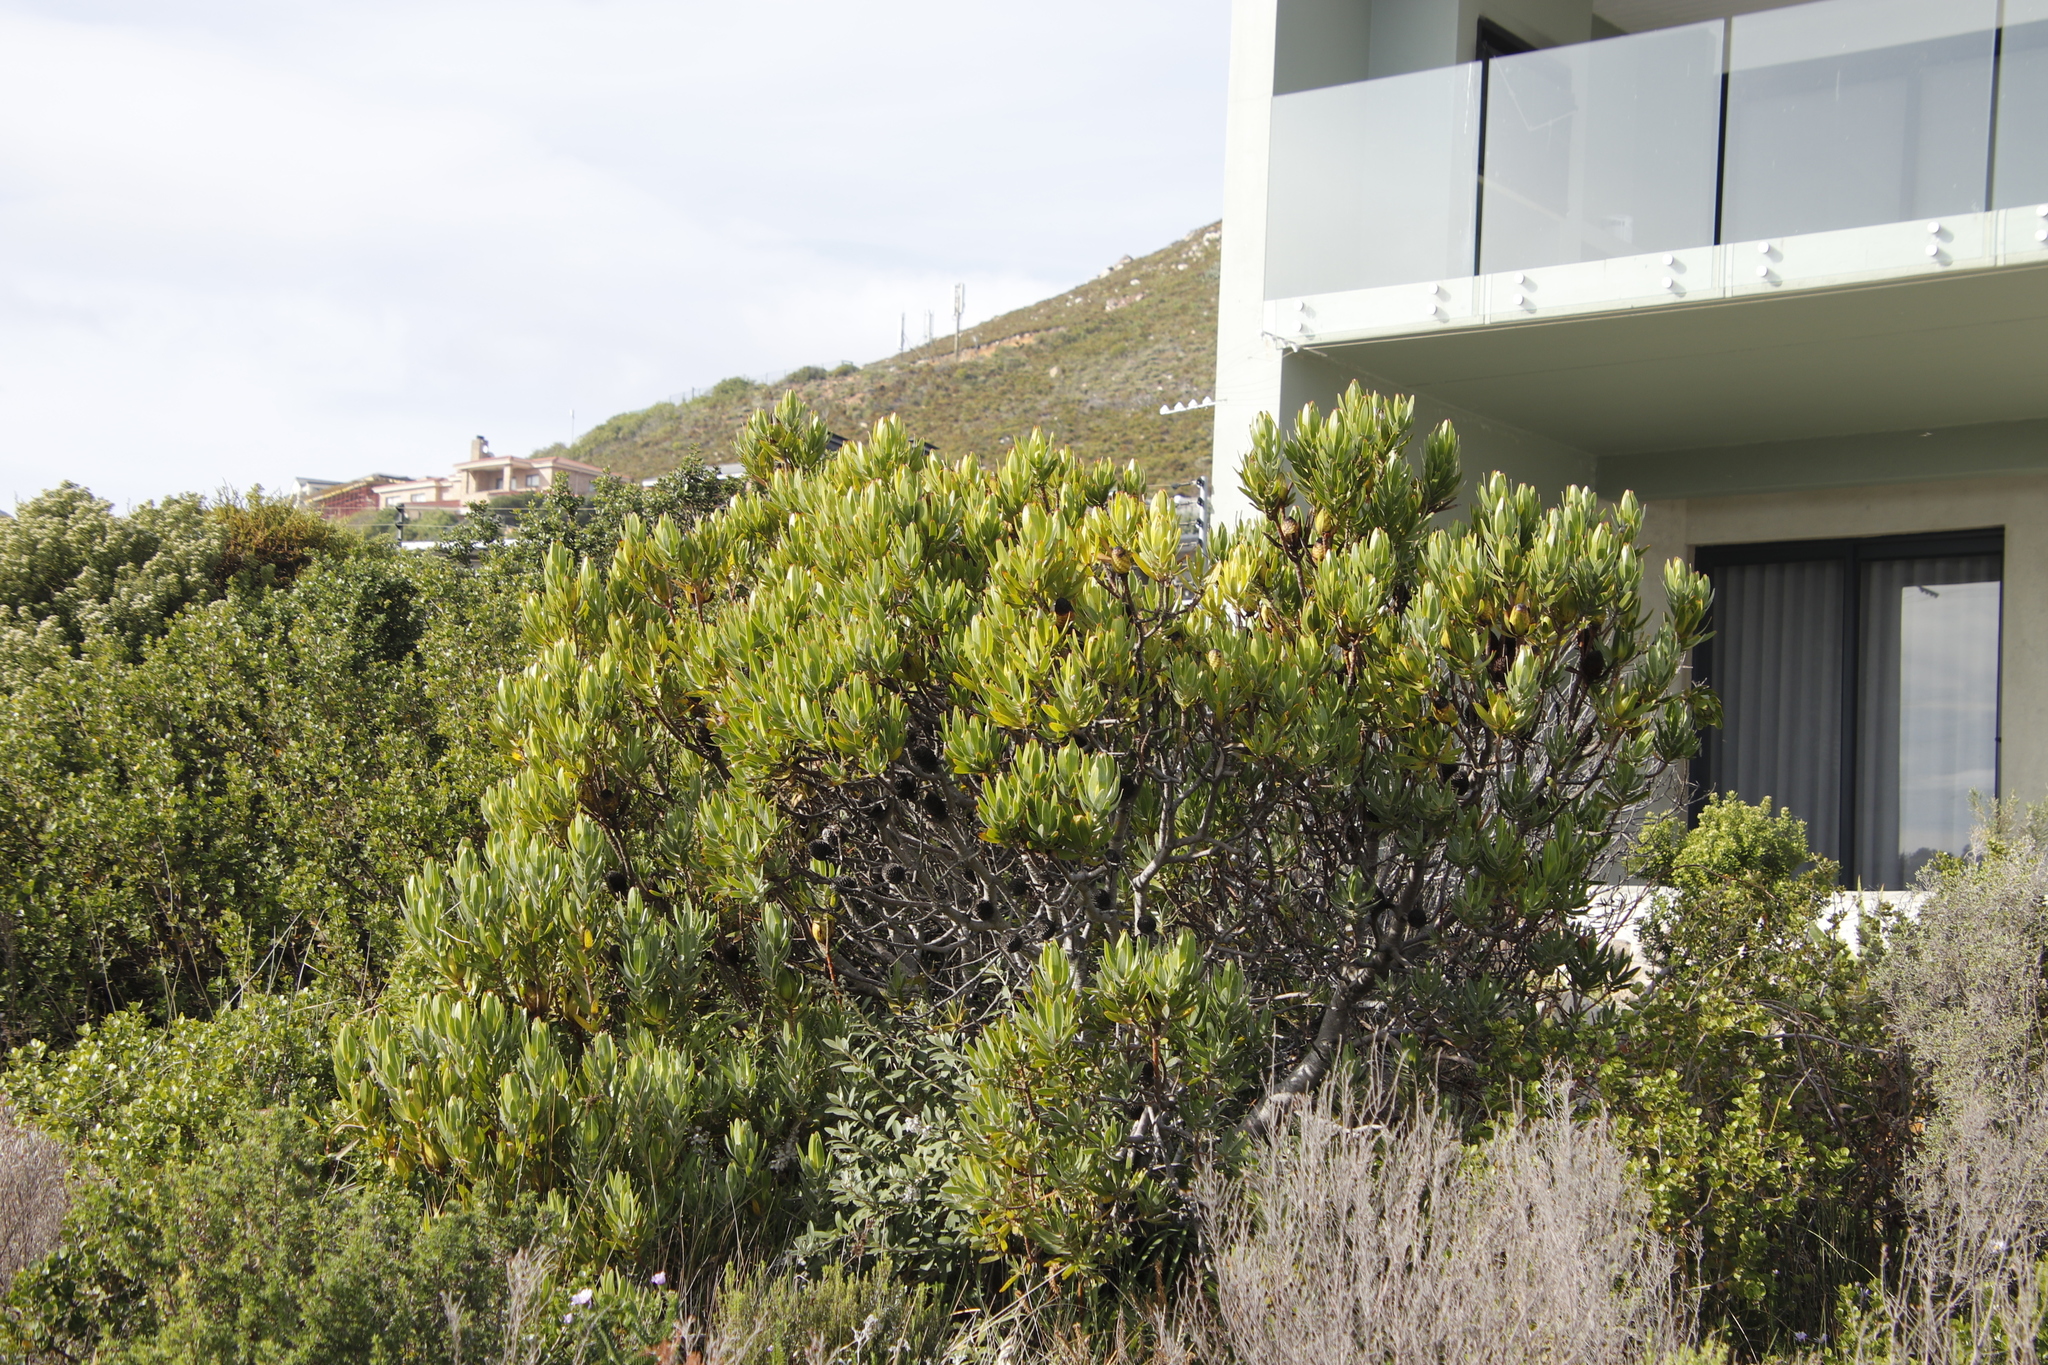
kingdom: Plantae
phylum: Tracheophyta
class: Magnoliopsida
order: Proteales
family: Proteaceae
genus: Leucadendron
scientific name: Leucadendron laureolum
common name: Golden sunshinebush
